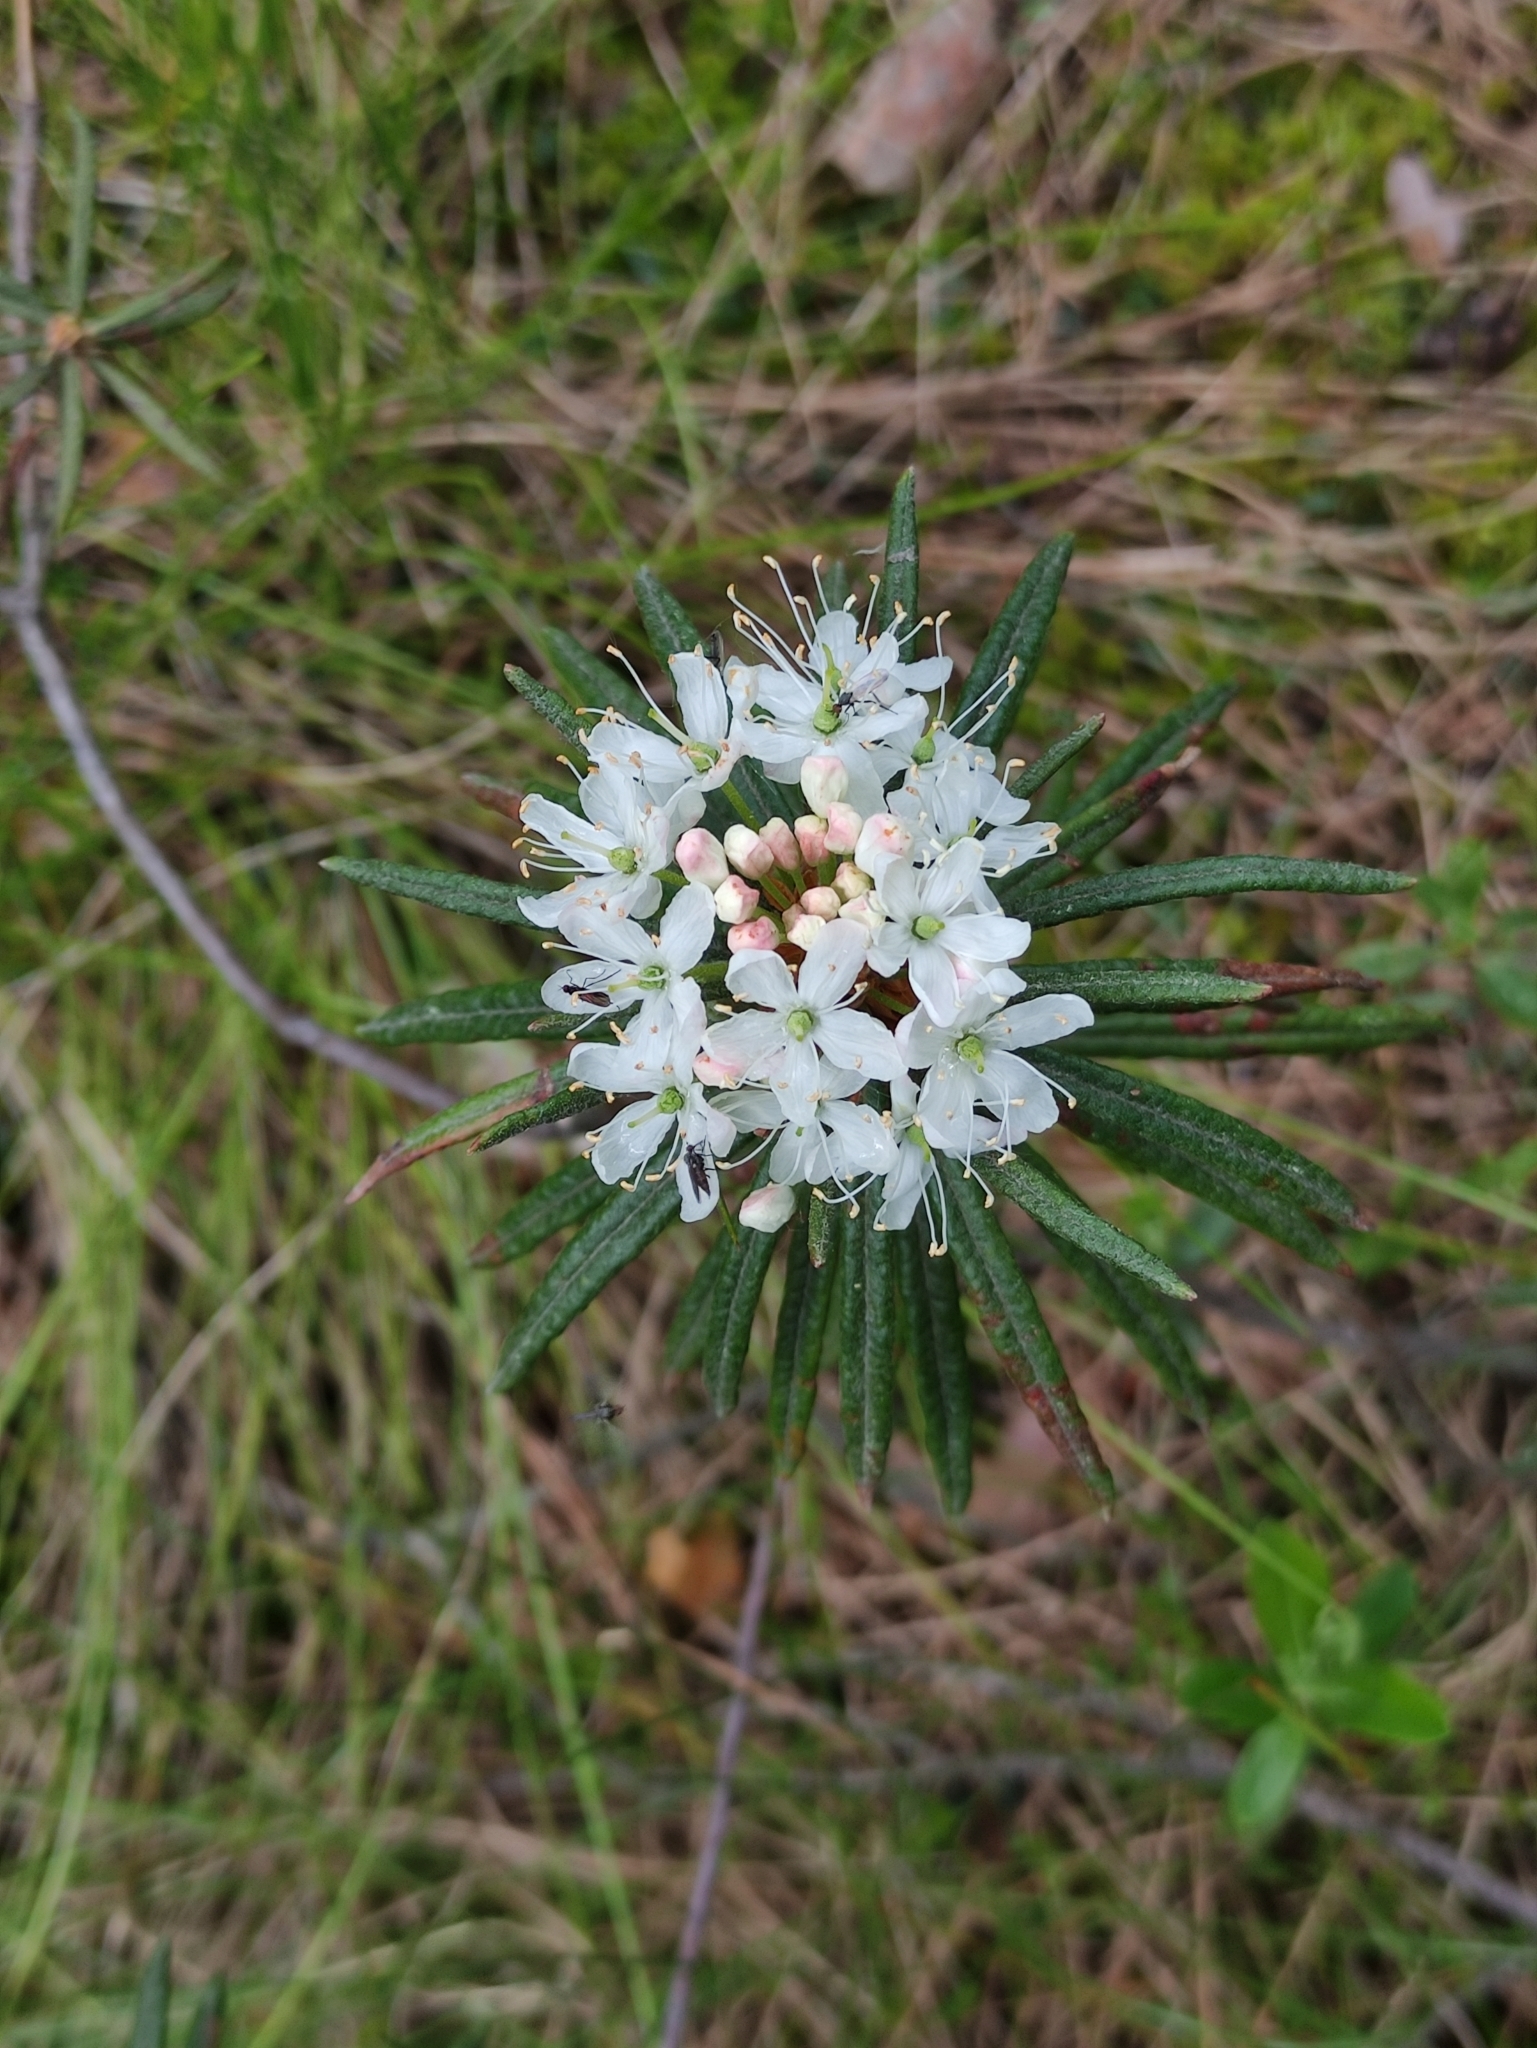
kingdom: Plantae
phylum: Tracheophyta
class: Magnoliopsida
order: Ericales
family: Ericaceae
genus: Rhododendron
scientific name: Rhododendron tomentosum
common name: Marsh labrador tea
